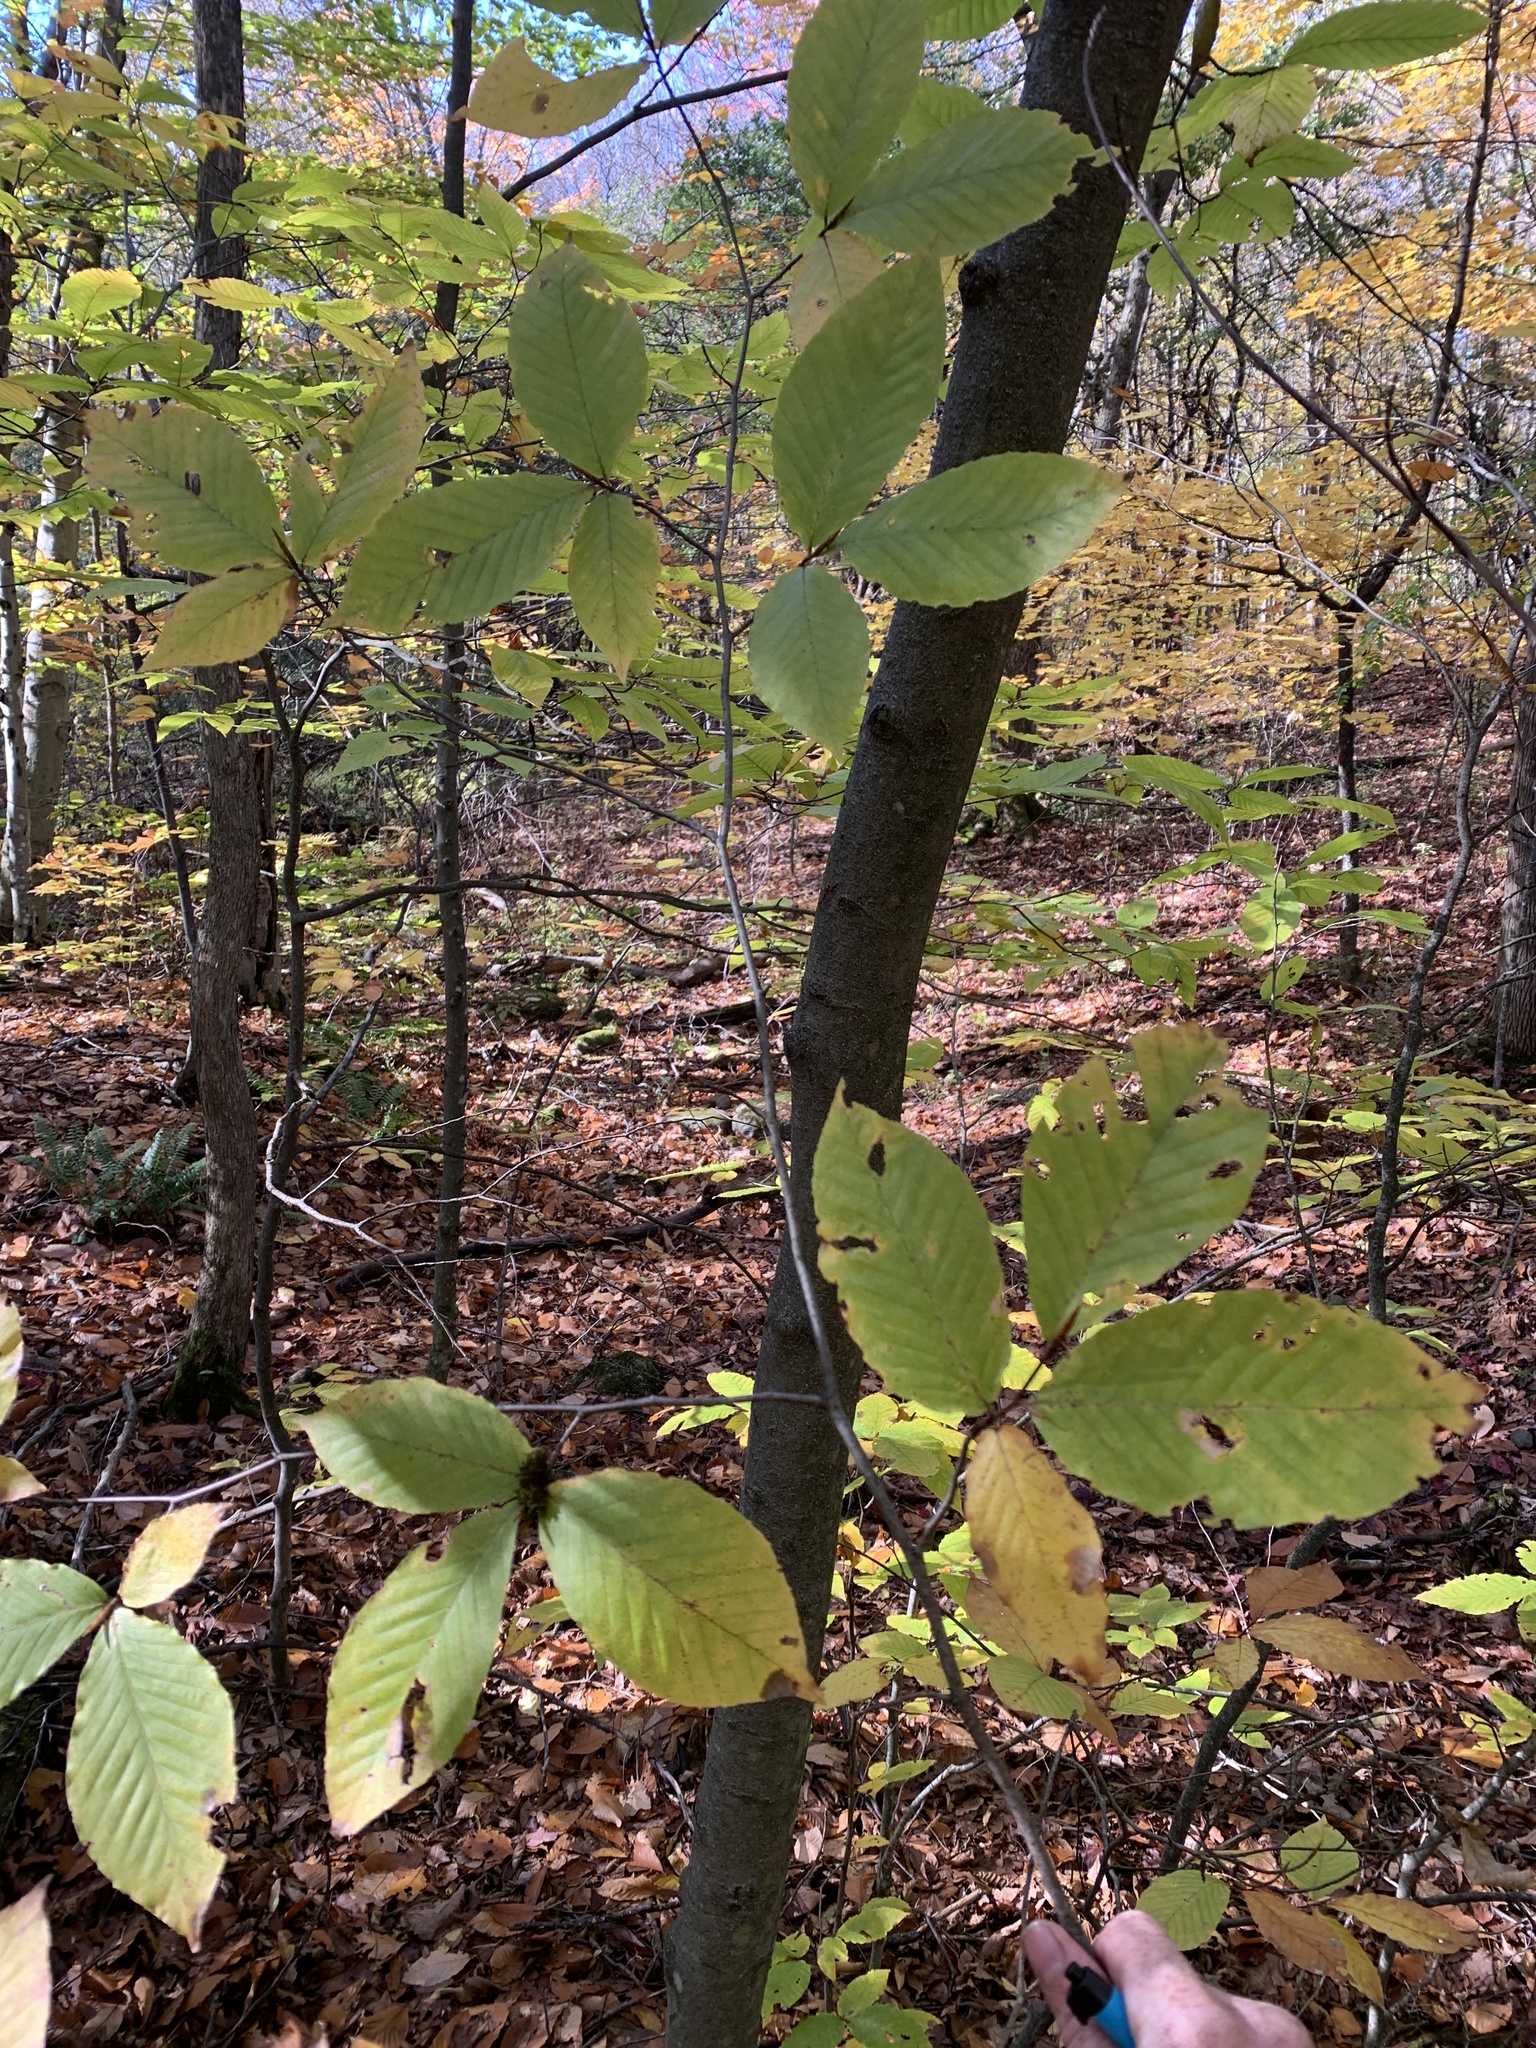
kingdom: Plantae
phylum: Tracheophyta
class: Magnoliopsida
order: Fagales
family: Fagaceae
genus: Fagus
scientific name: Fagus grandifolia
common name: American beech
